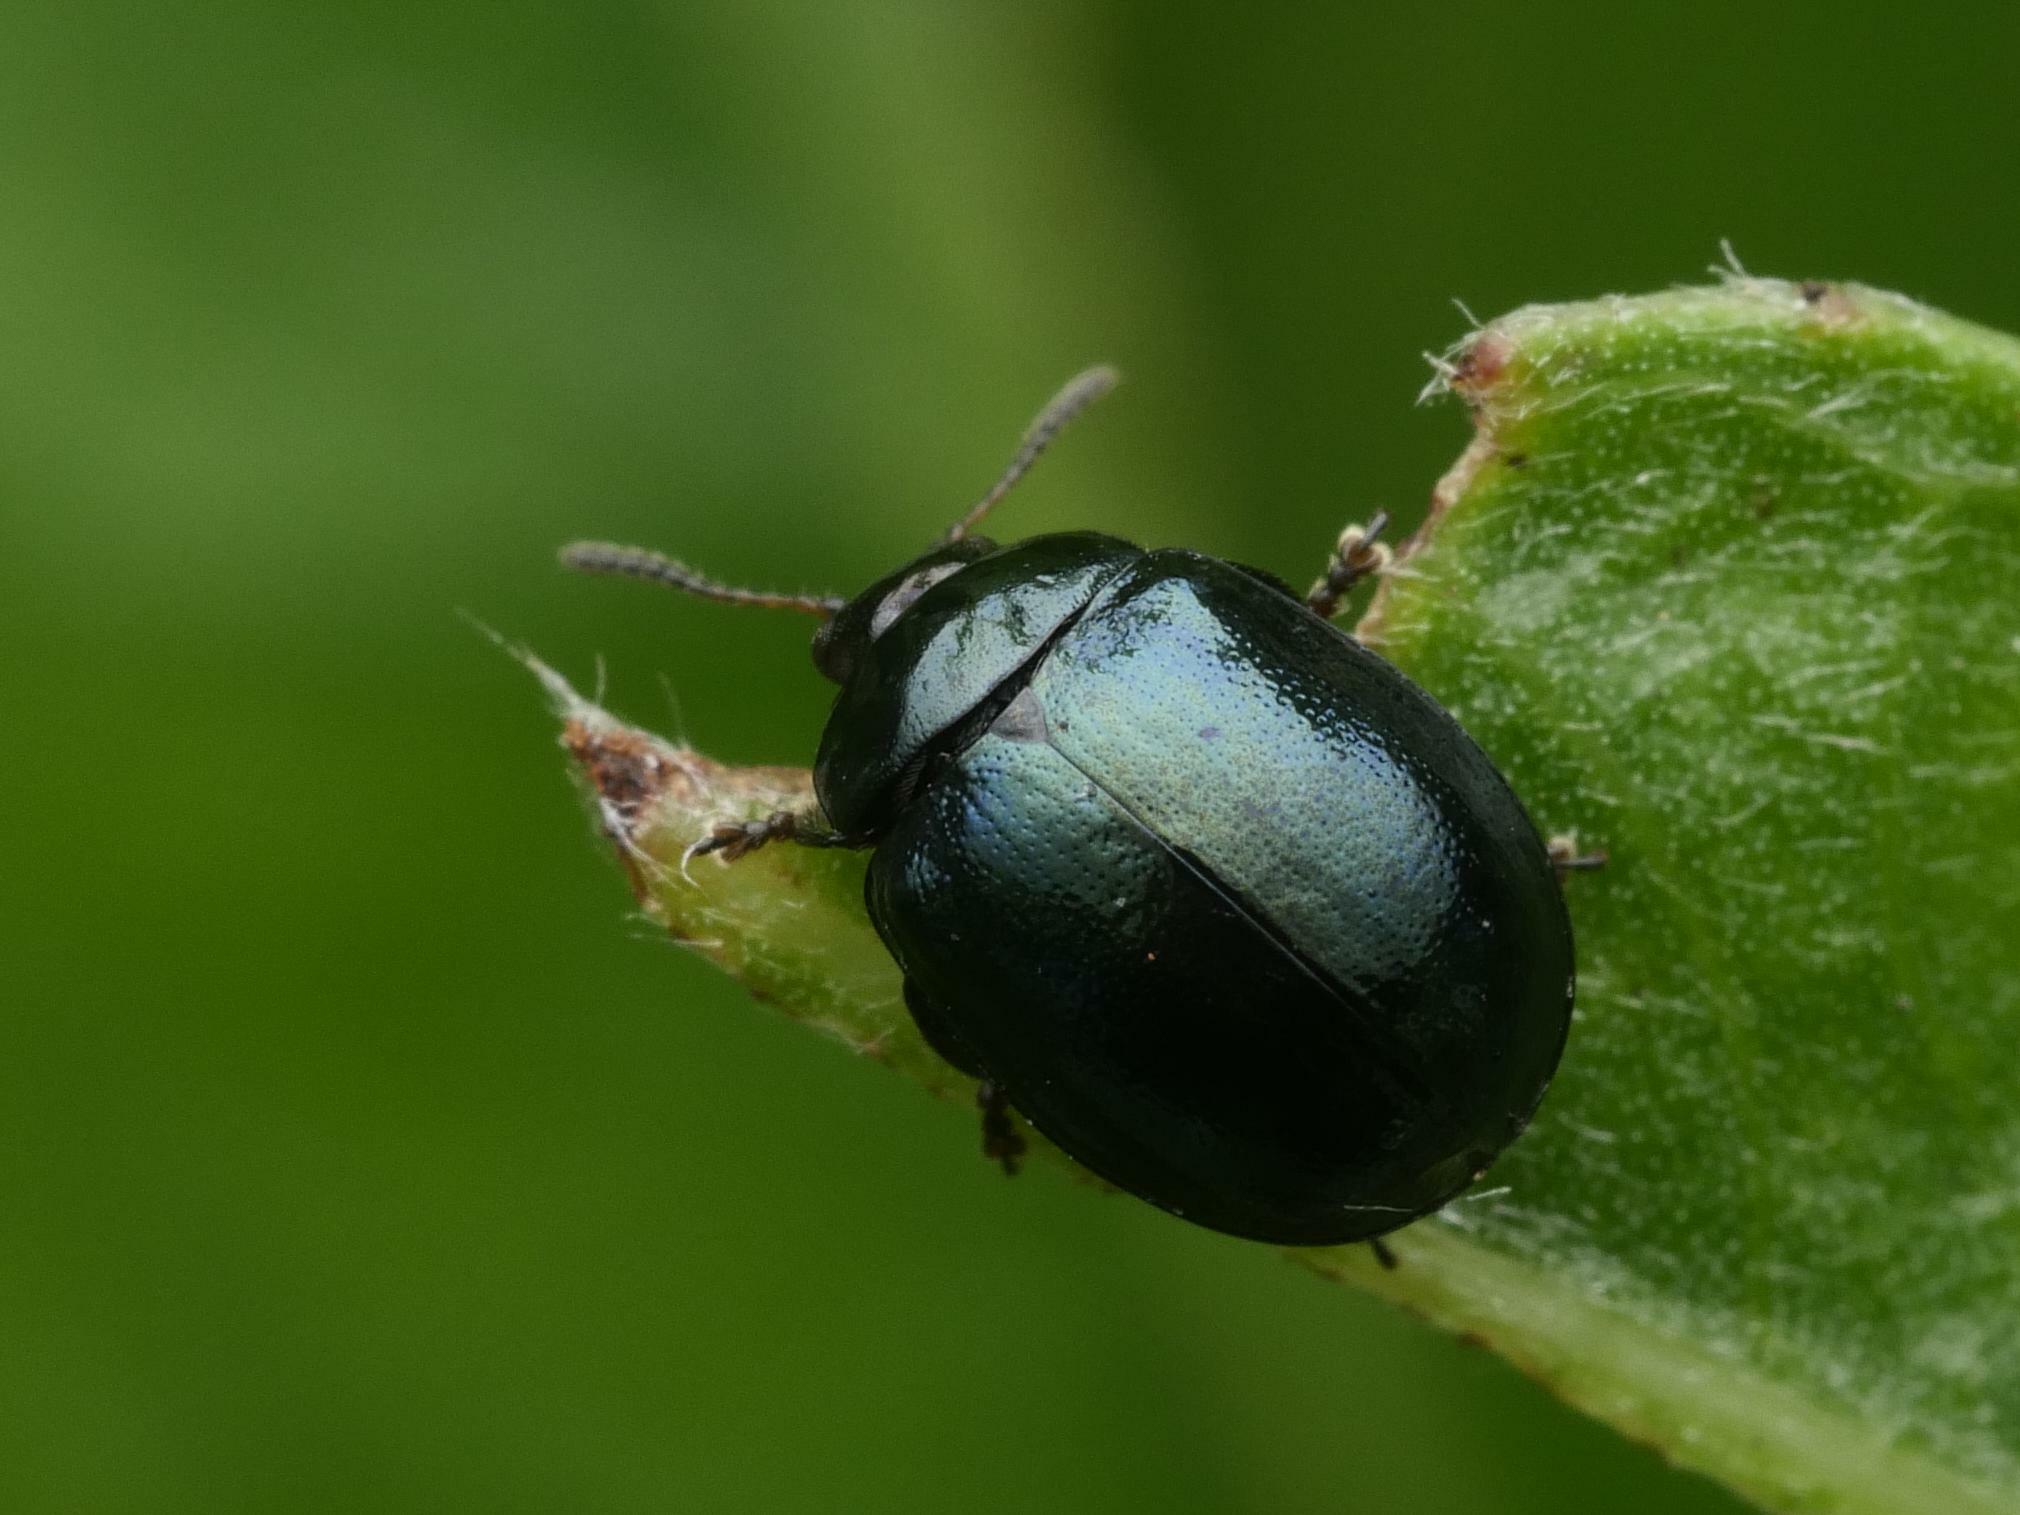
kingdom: Animalia
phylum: Arthropoda
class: Insecta
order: Coleoptera
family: Chrysomelidae
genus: Plagiodera
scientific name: Plagiodera versicolora
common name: Imported willow leaf beetle
